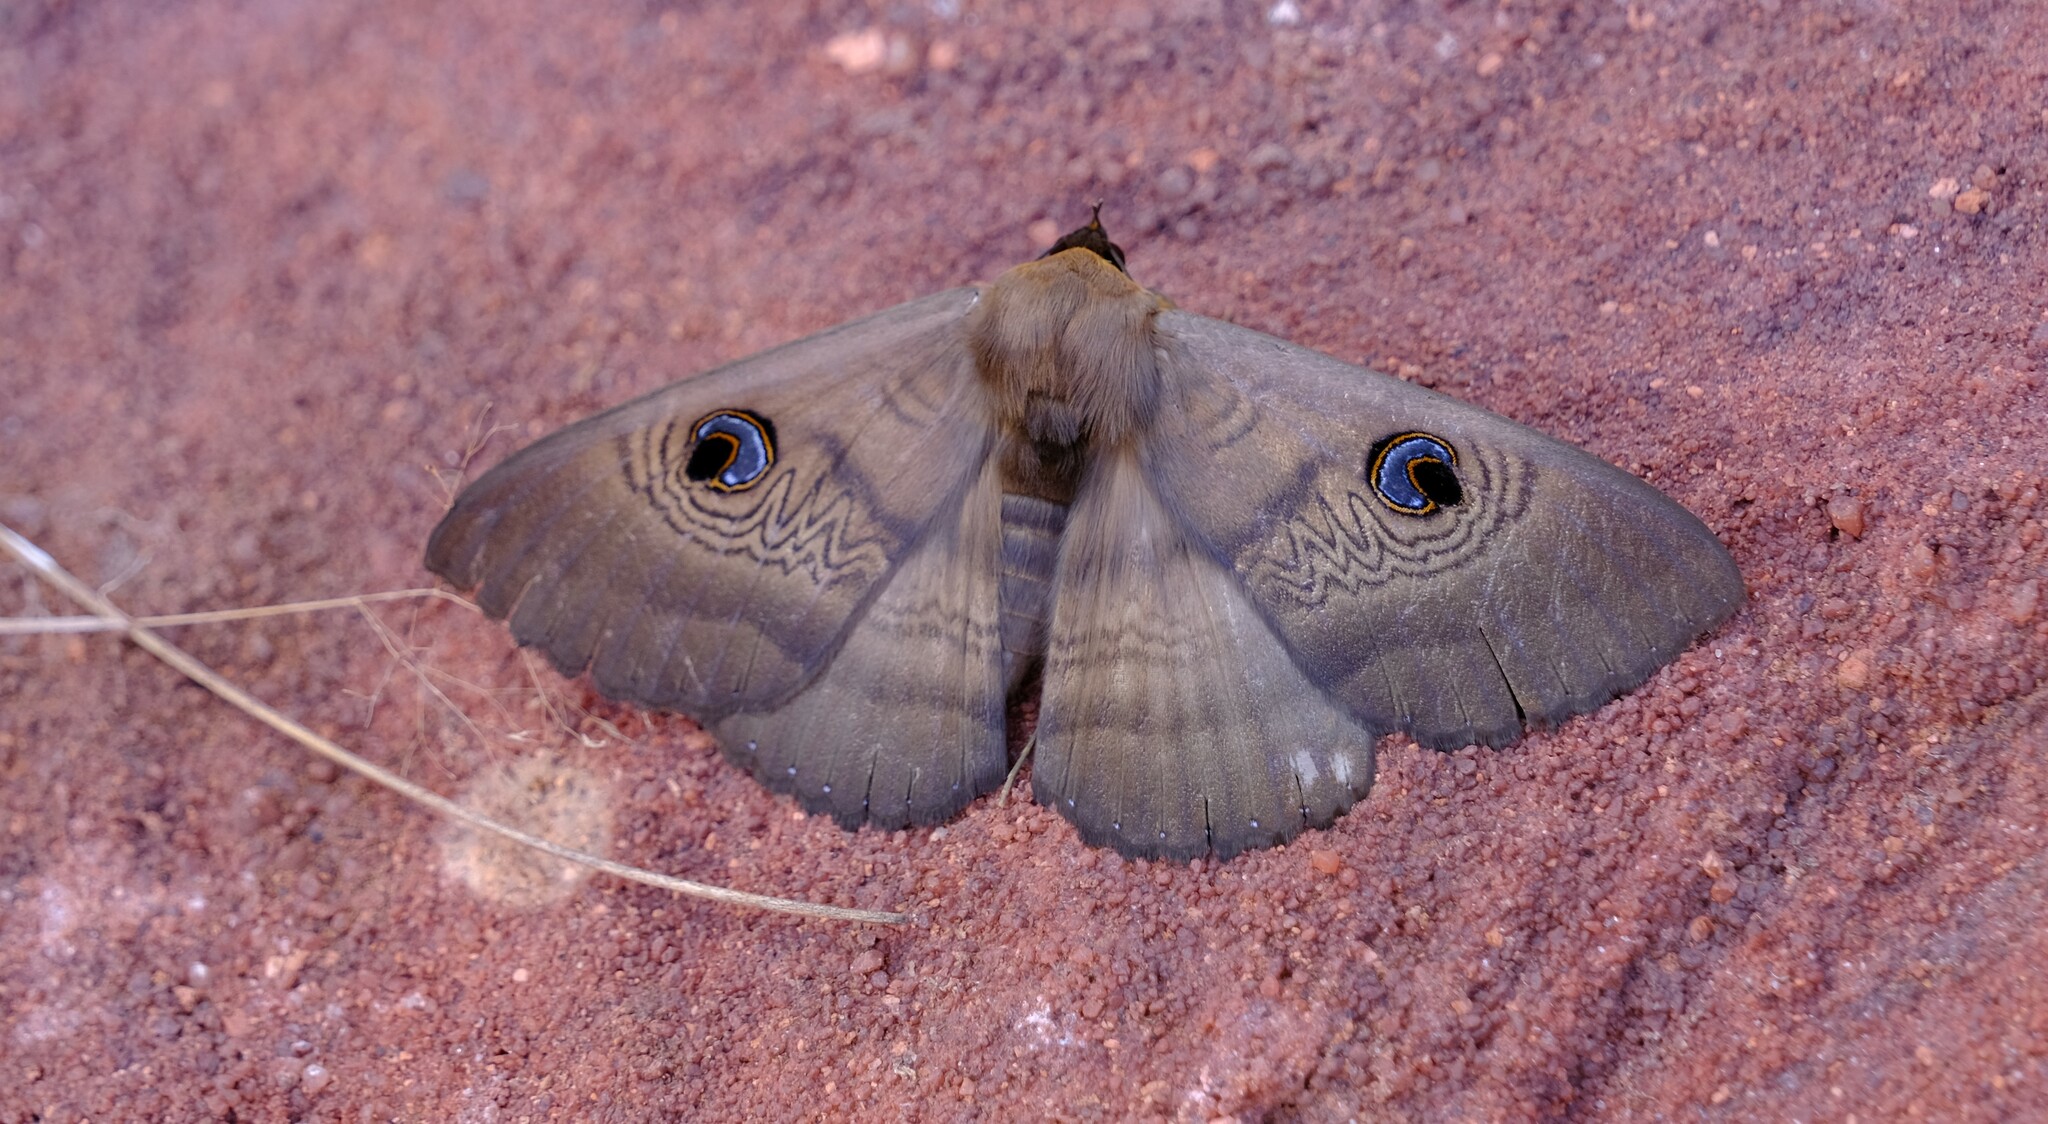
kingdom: Animalia
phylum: Arthropoda
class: Insecta
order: Lepidoptera
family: Erebidae
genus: Dasypodia
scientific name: Dasypodia selenophora
